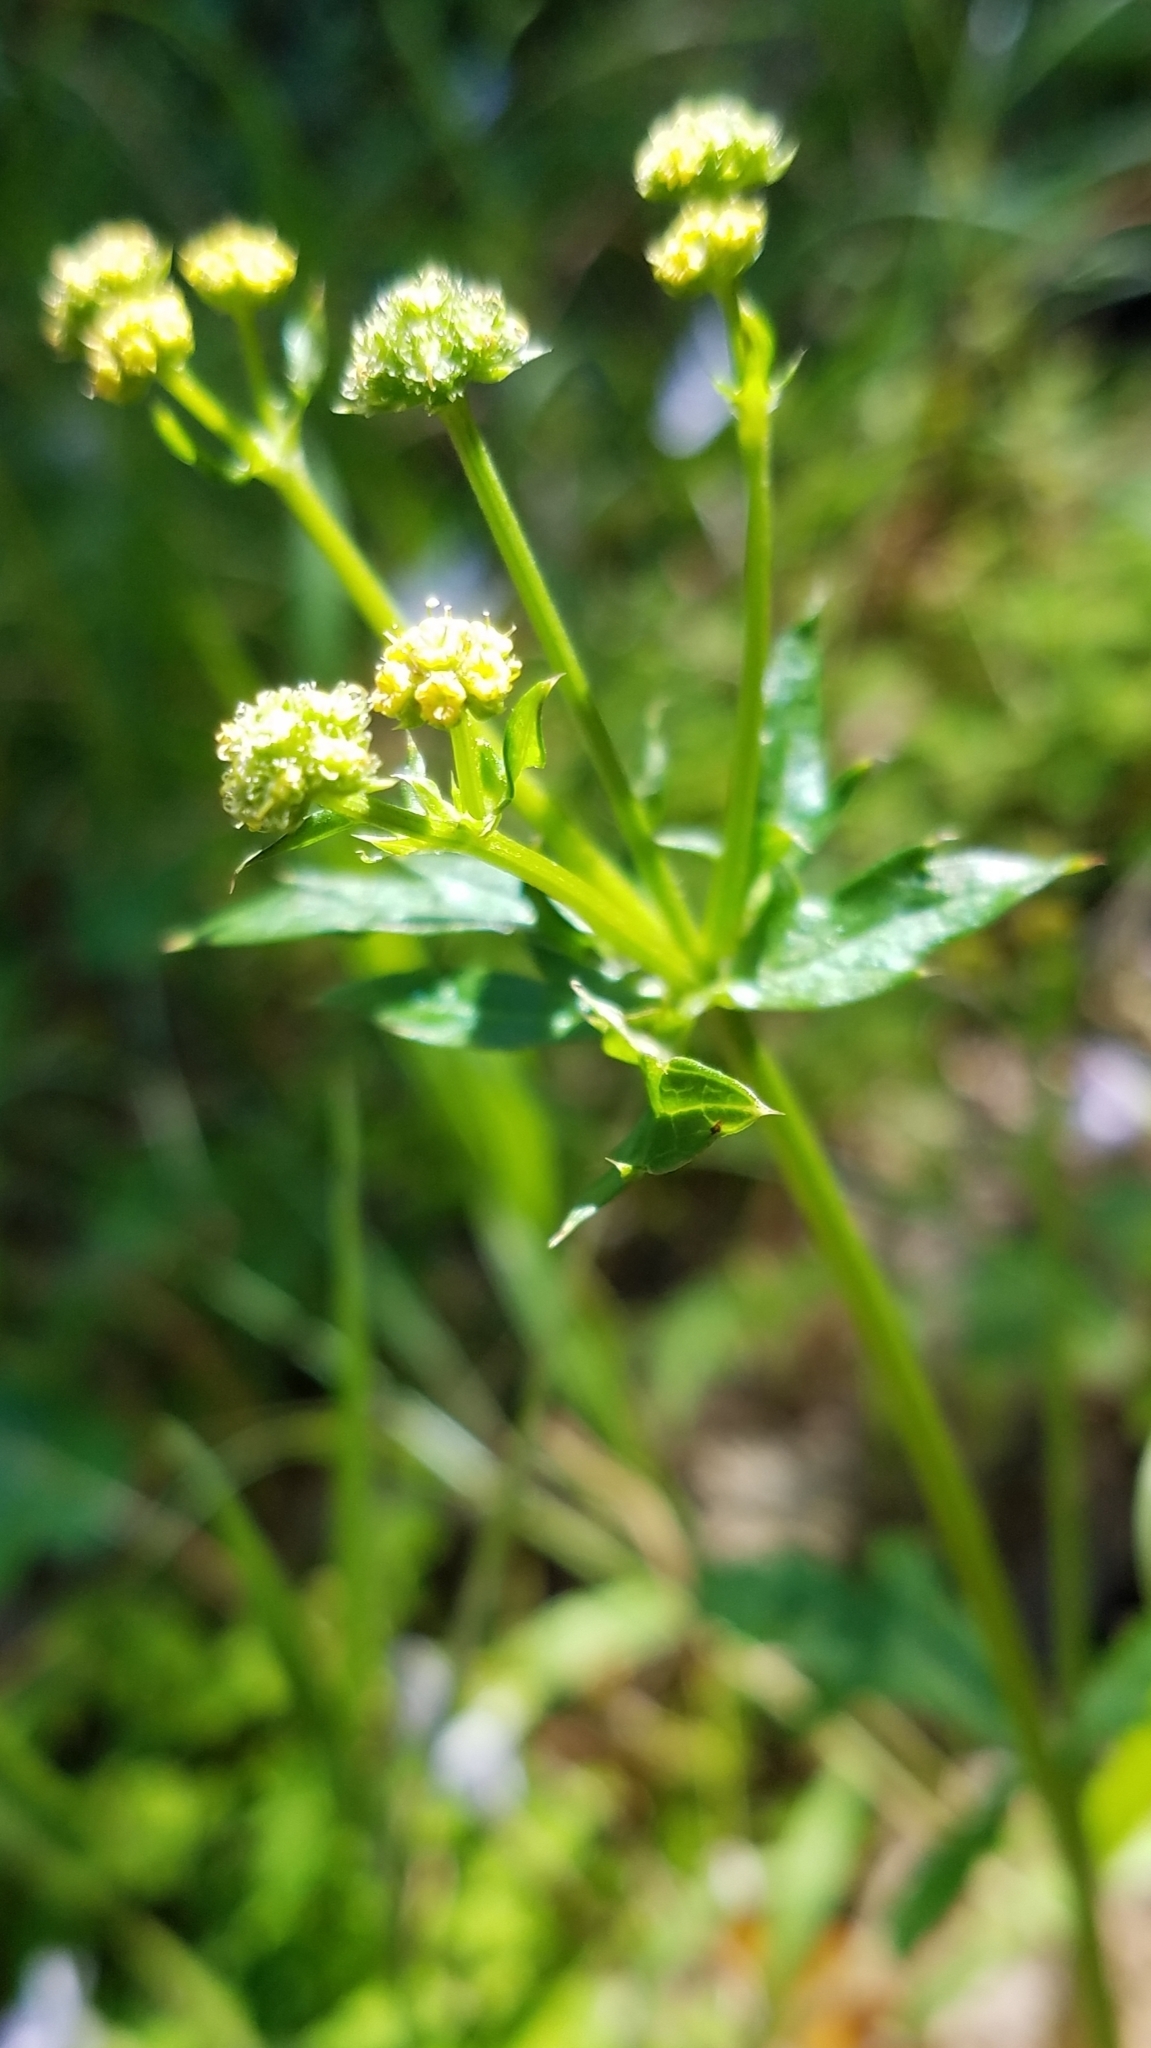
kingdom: Plantae
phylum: Tracheophyta
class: Magnoliopsida
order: Apiales
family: Apiaceae
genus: Sanicula
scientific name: Sanicula crassicaulis
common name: Western snakeroot
